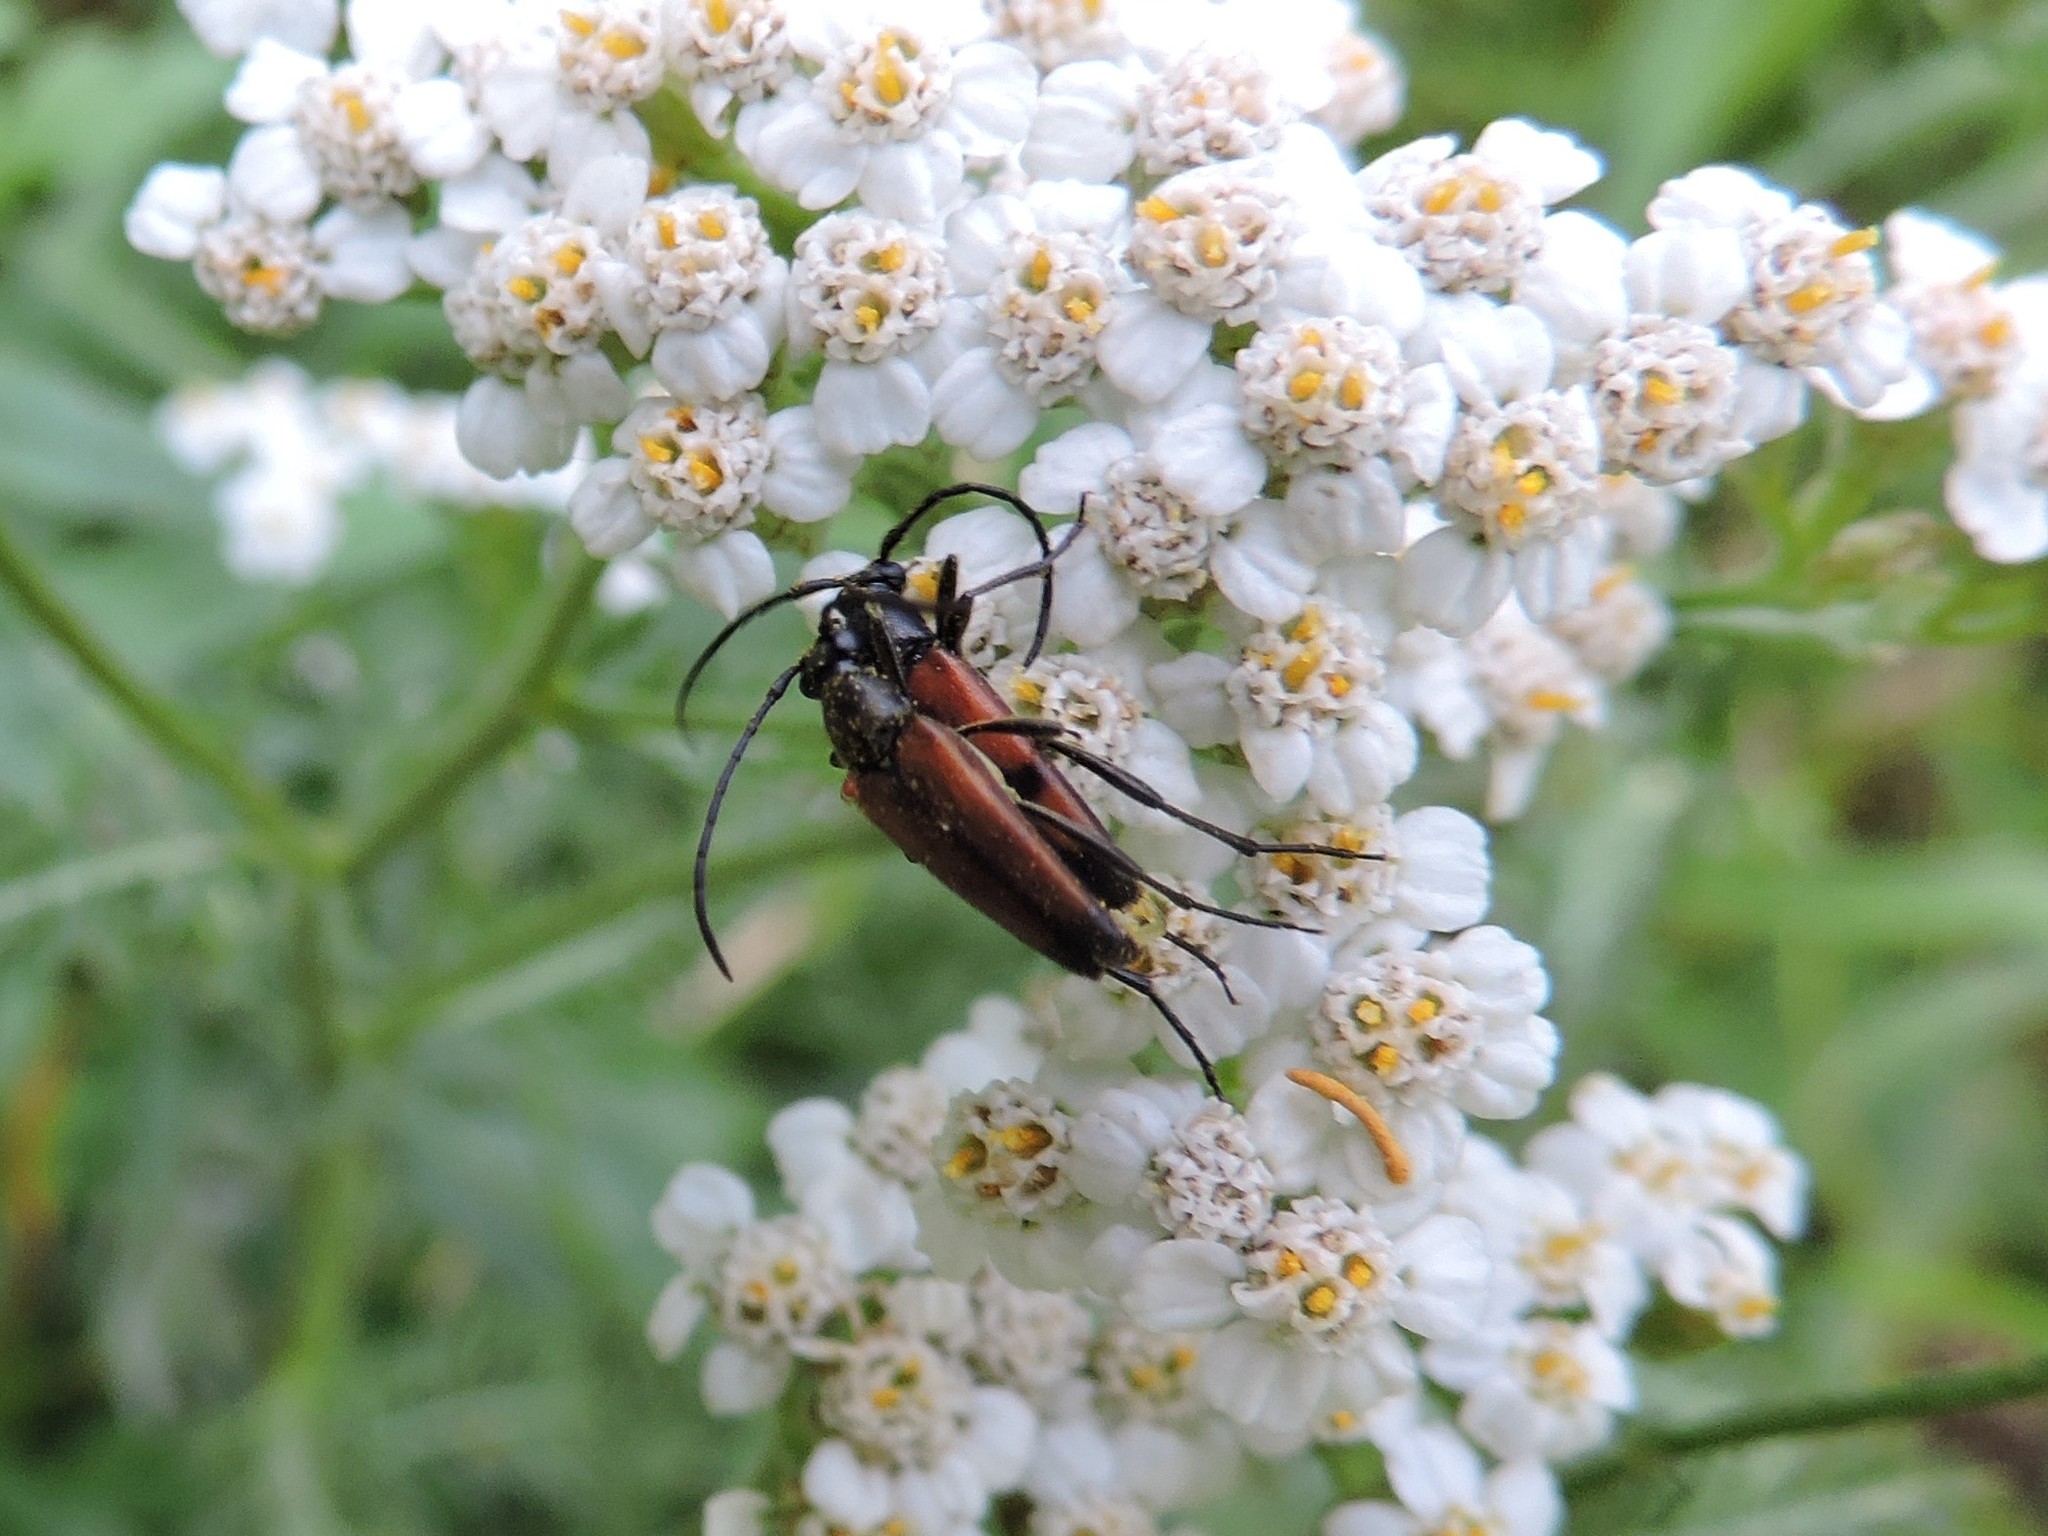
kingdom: Animalia
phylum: Arthropoda
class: Insecta
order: Coleoptera
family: Cerambycidae
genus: Stenurella
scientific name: Stenurella bifasciata
